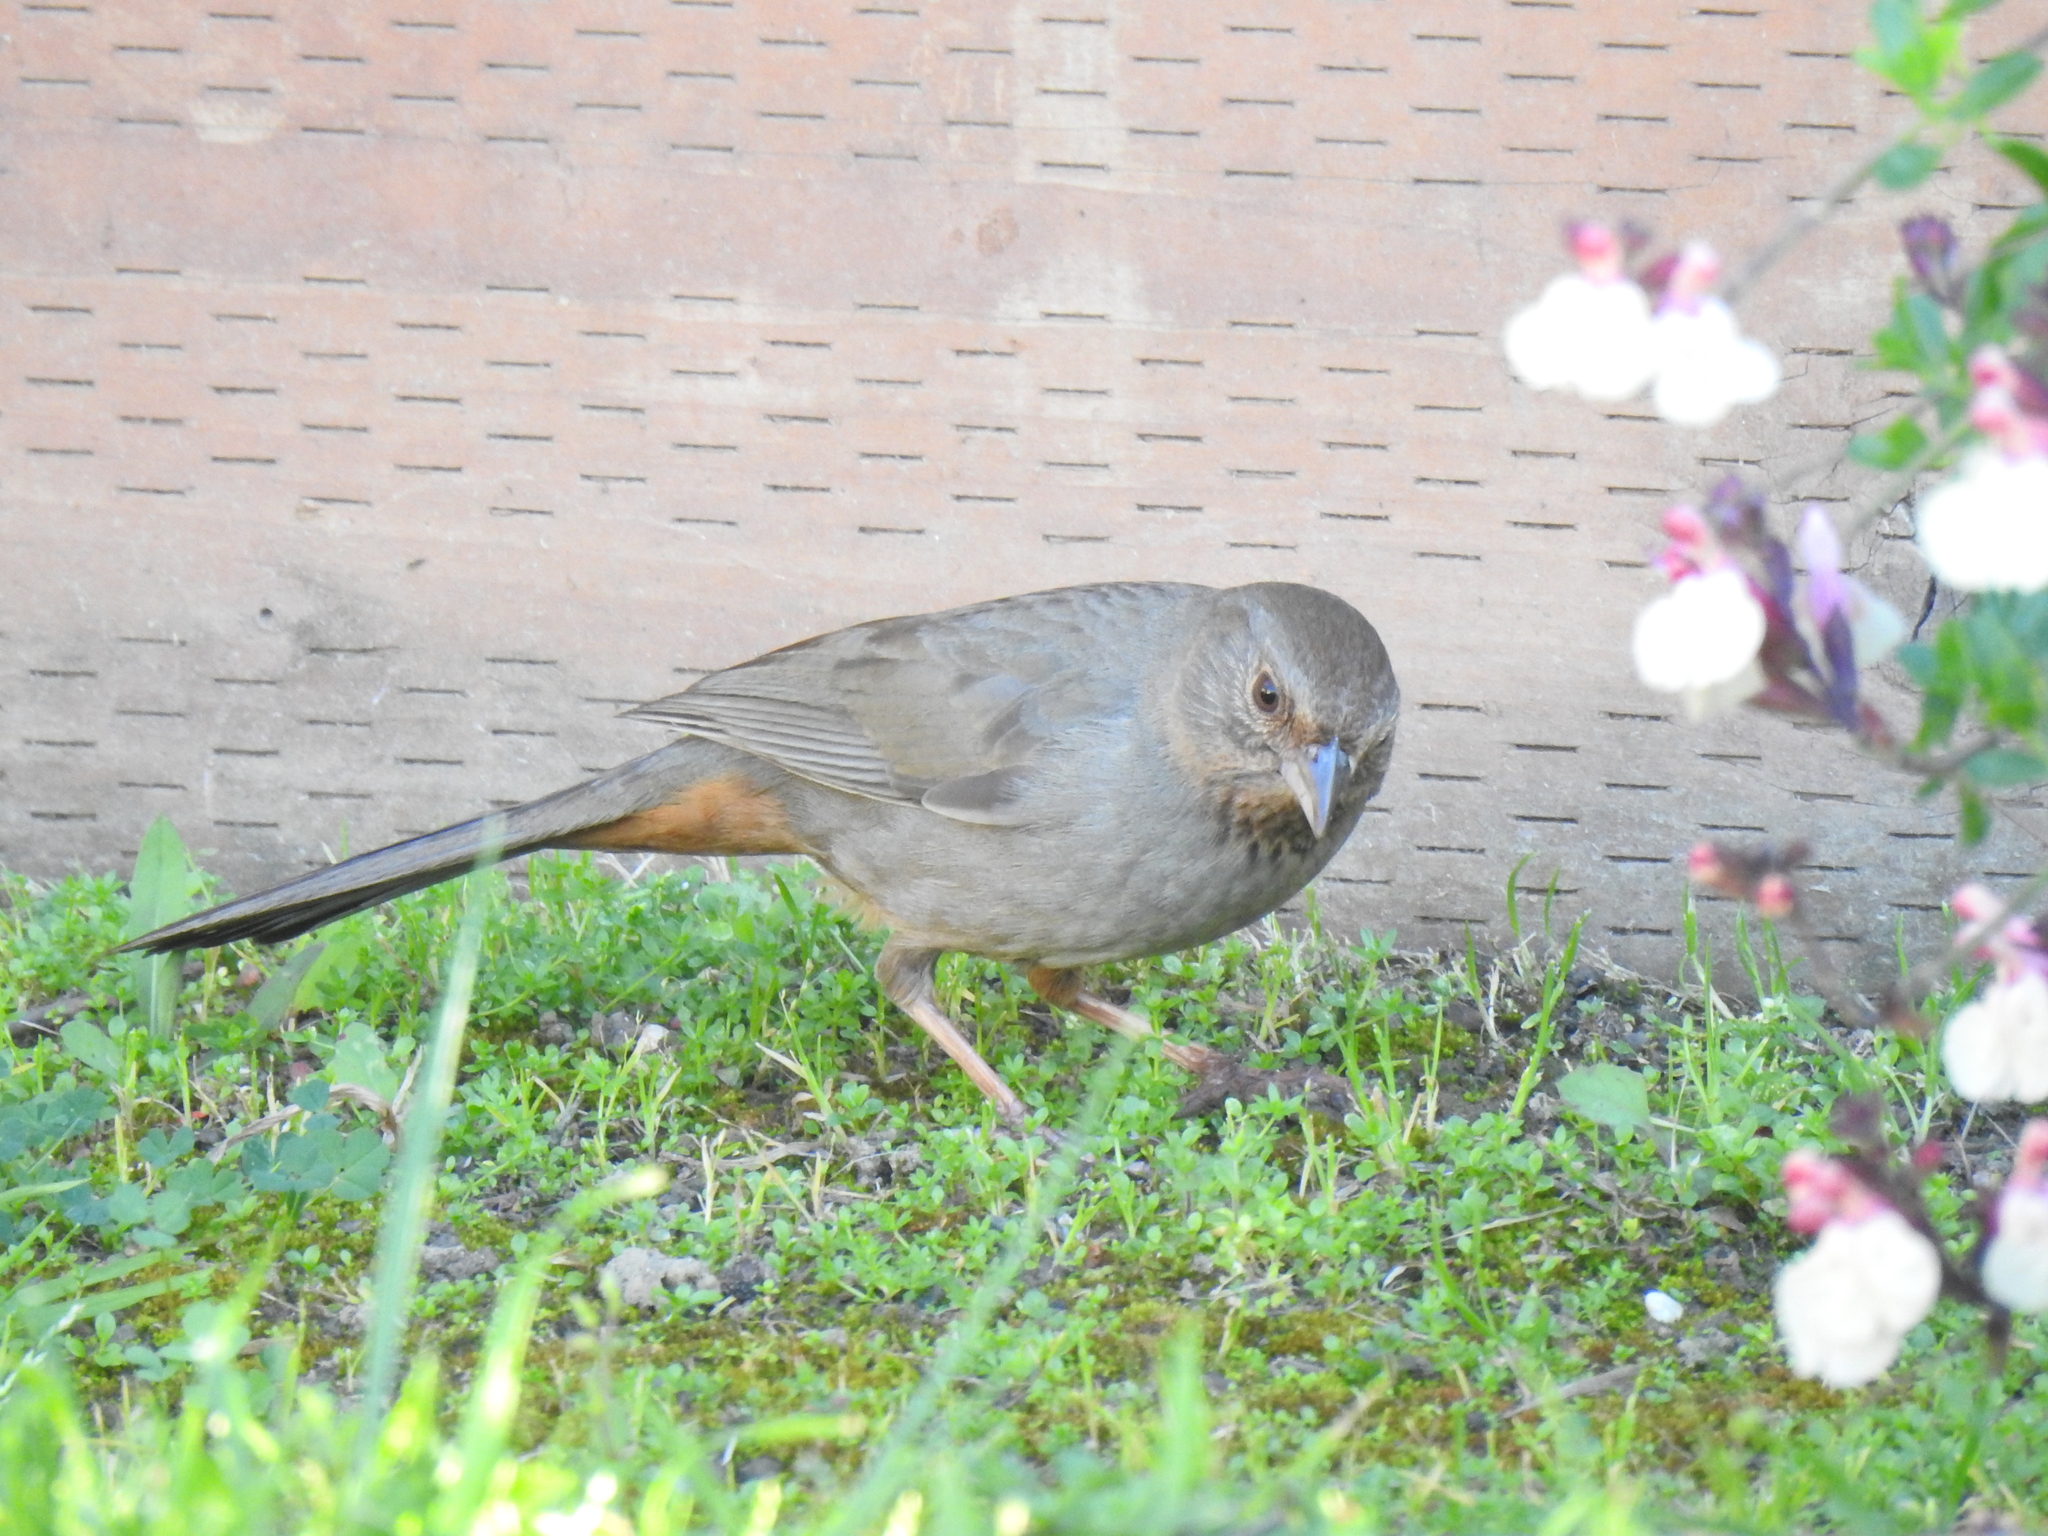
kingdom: Animalia
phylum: Chordata
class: Aves
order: Passeriformes
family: Passerellidae
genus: Melozone
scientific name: Melozone crissalis
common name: California towhee
